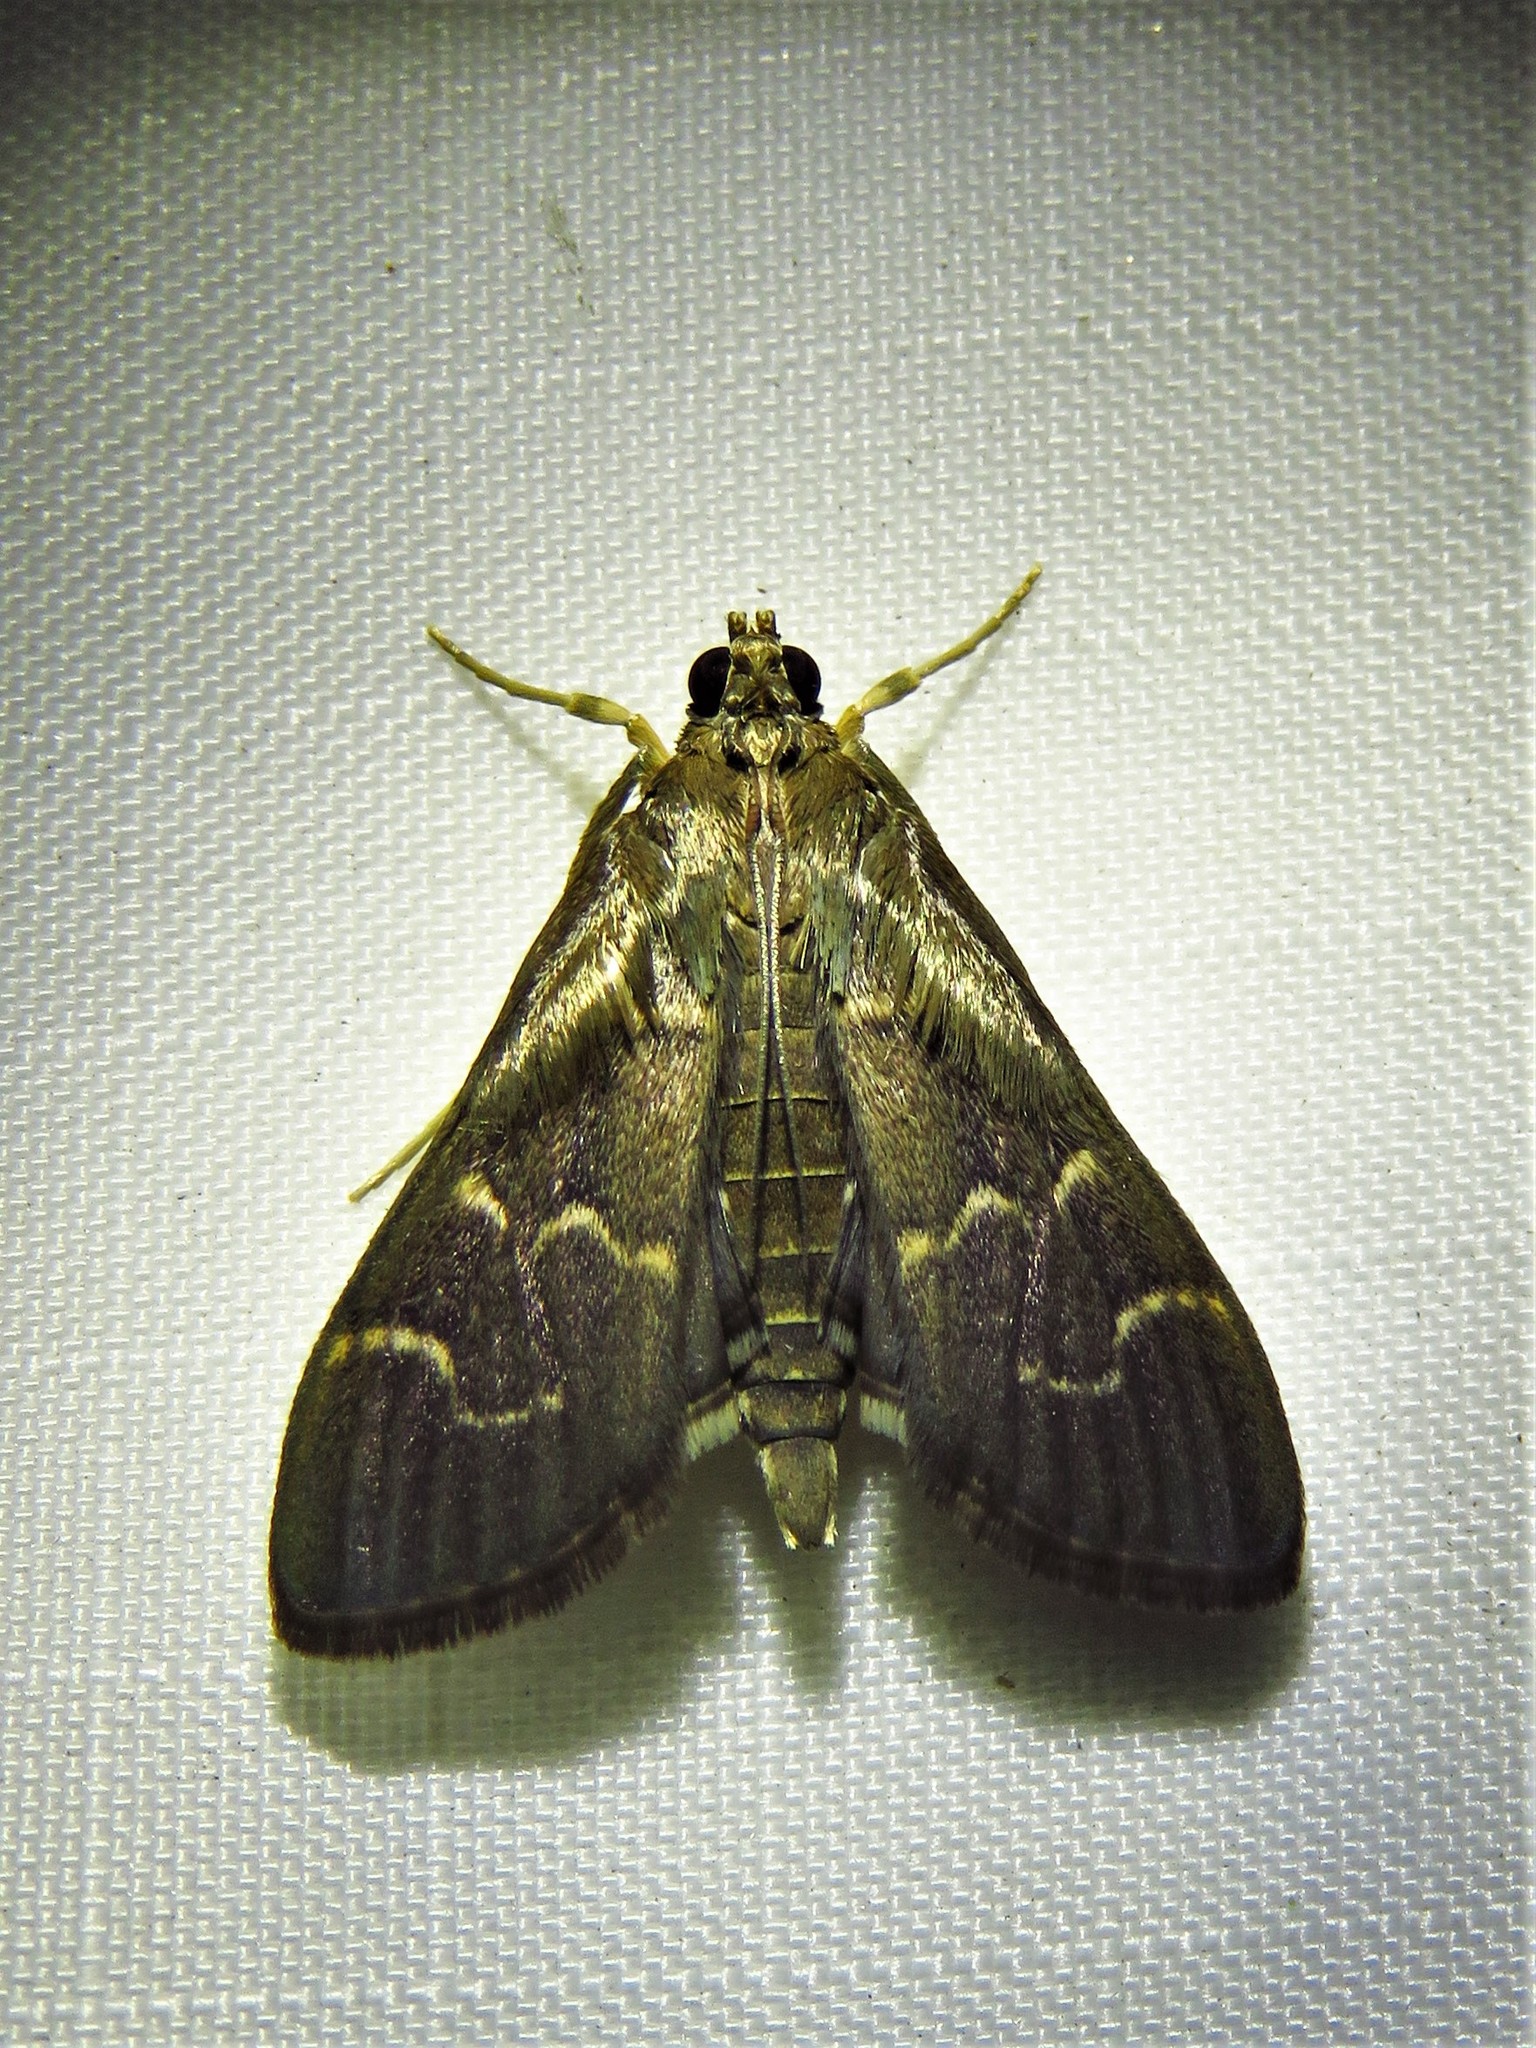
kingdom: Animalia
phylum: Arthropoda
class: Insecta
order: Lepidoptera
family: Crambidae
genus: Pilocrocis
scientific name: Pilocrocis ramentalis
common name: Scraped pilocrocis
